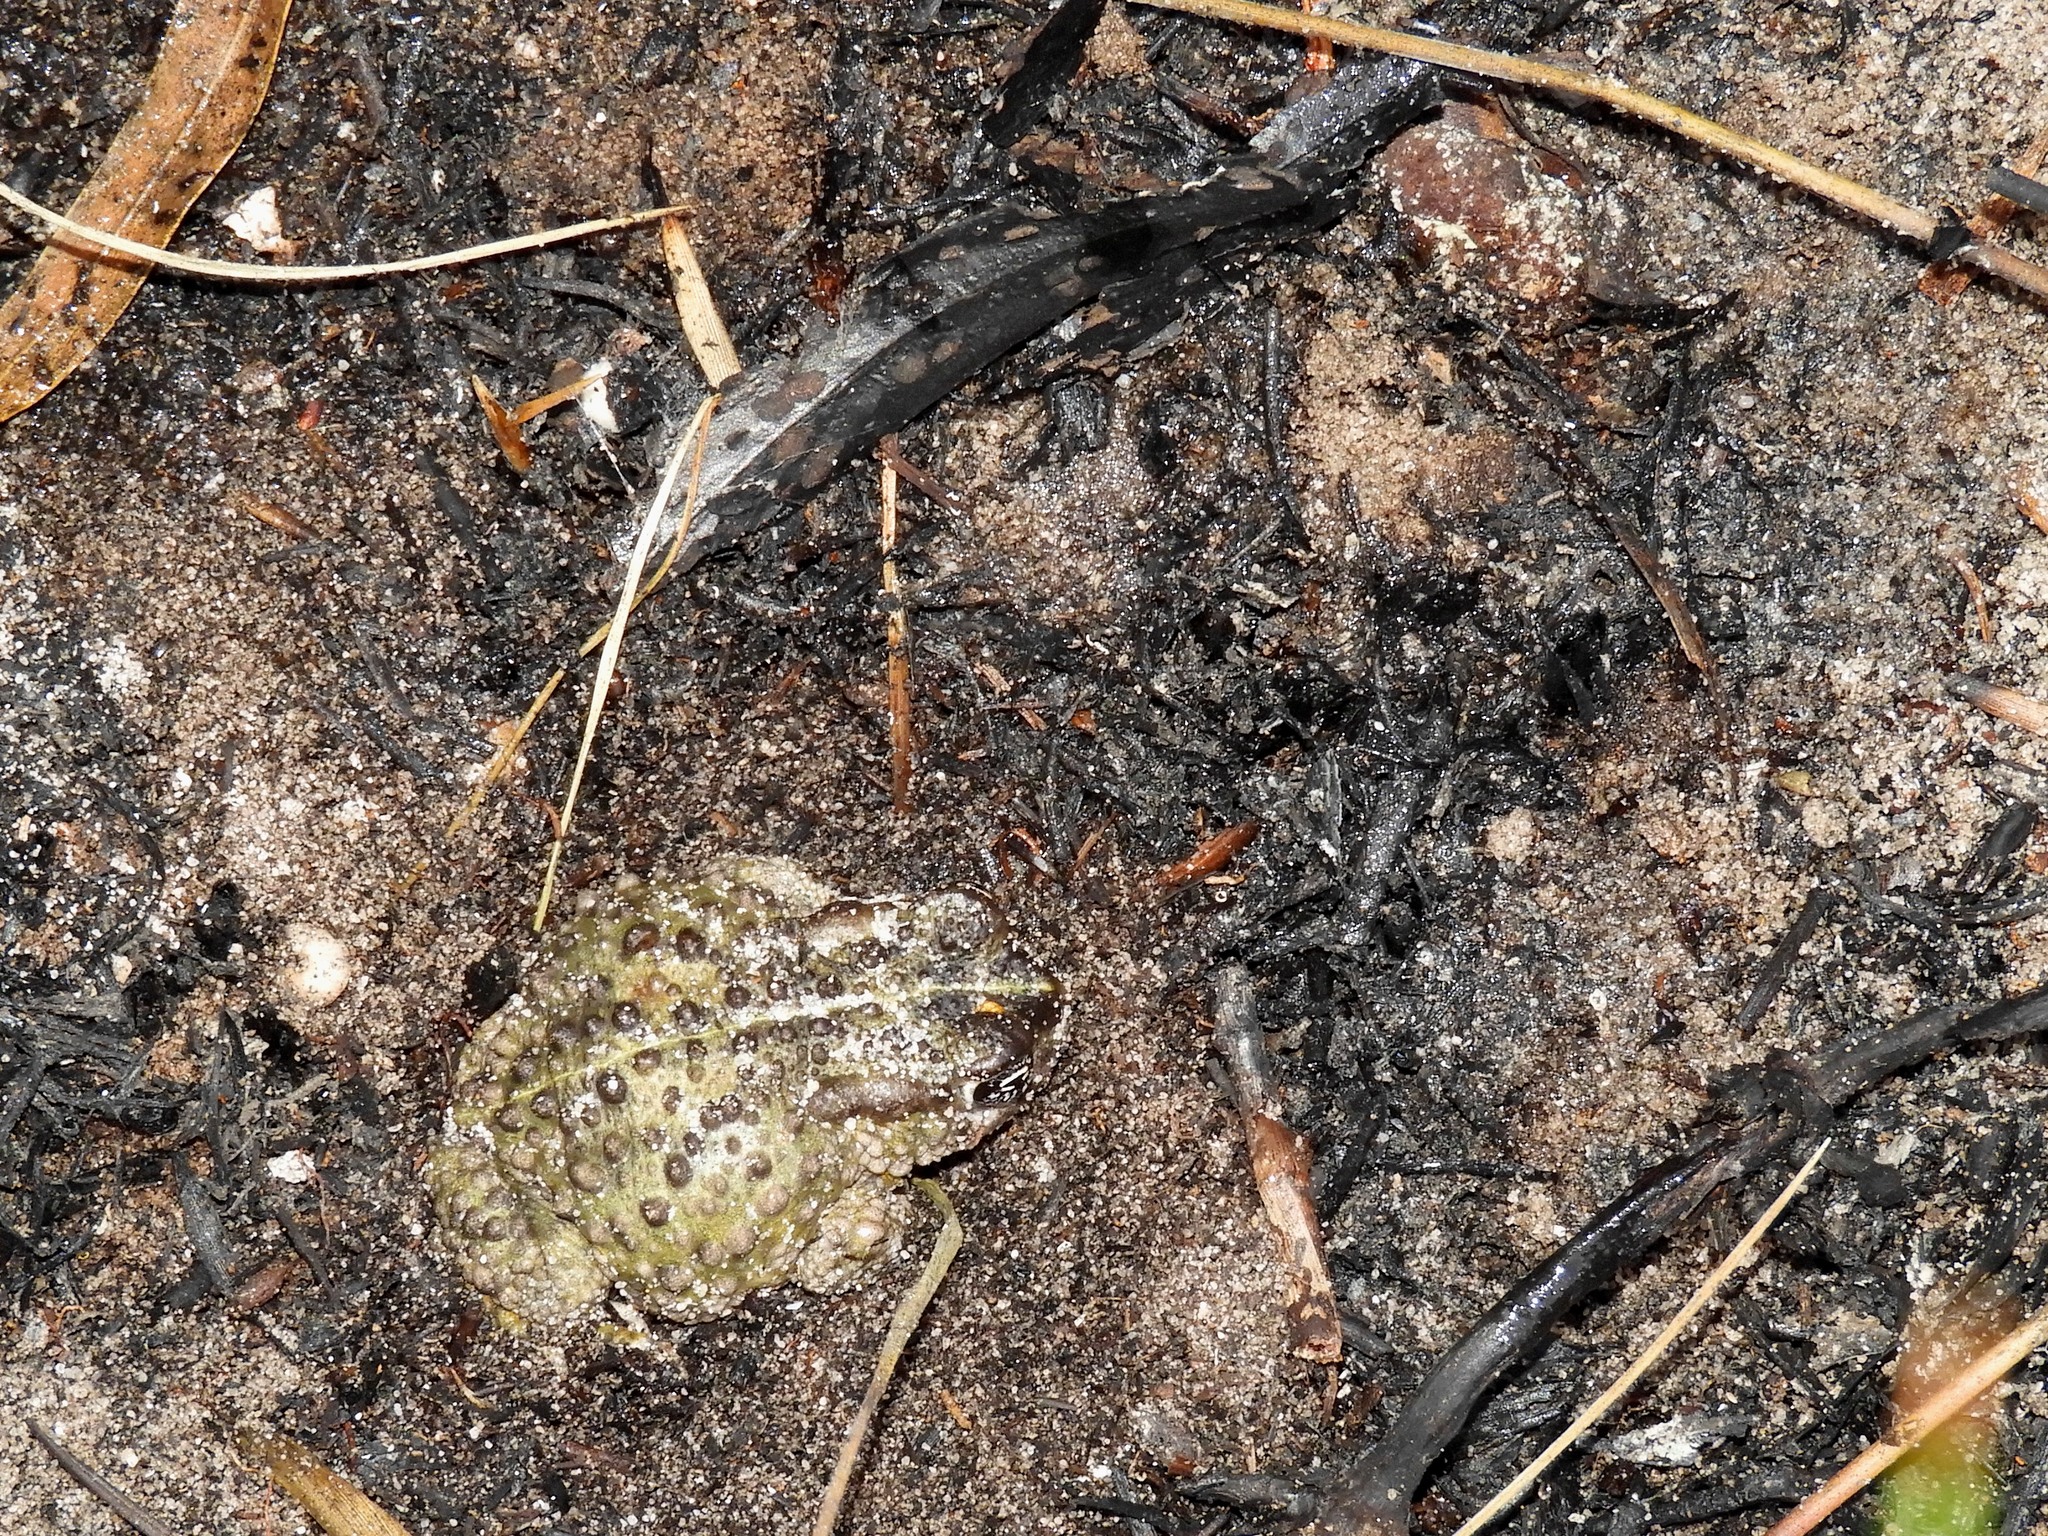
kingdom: Animalia
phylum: Chordata
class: Amphibia
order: Anura
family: Bufonidae
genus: Vandijkophrynus
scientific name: Vandijkophrynus angusticeps
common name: Sand toad
